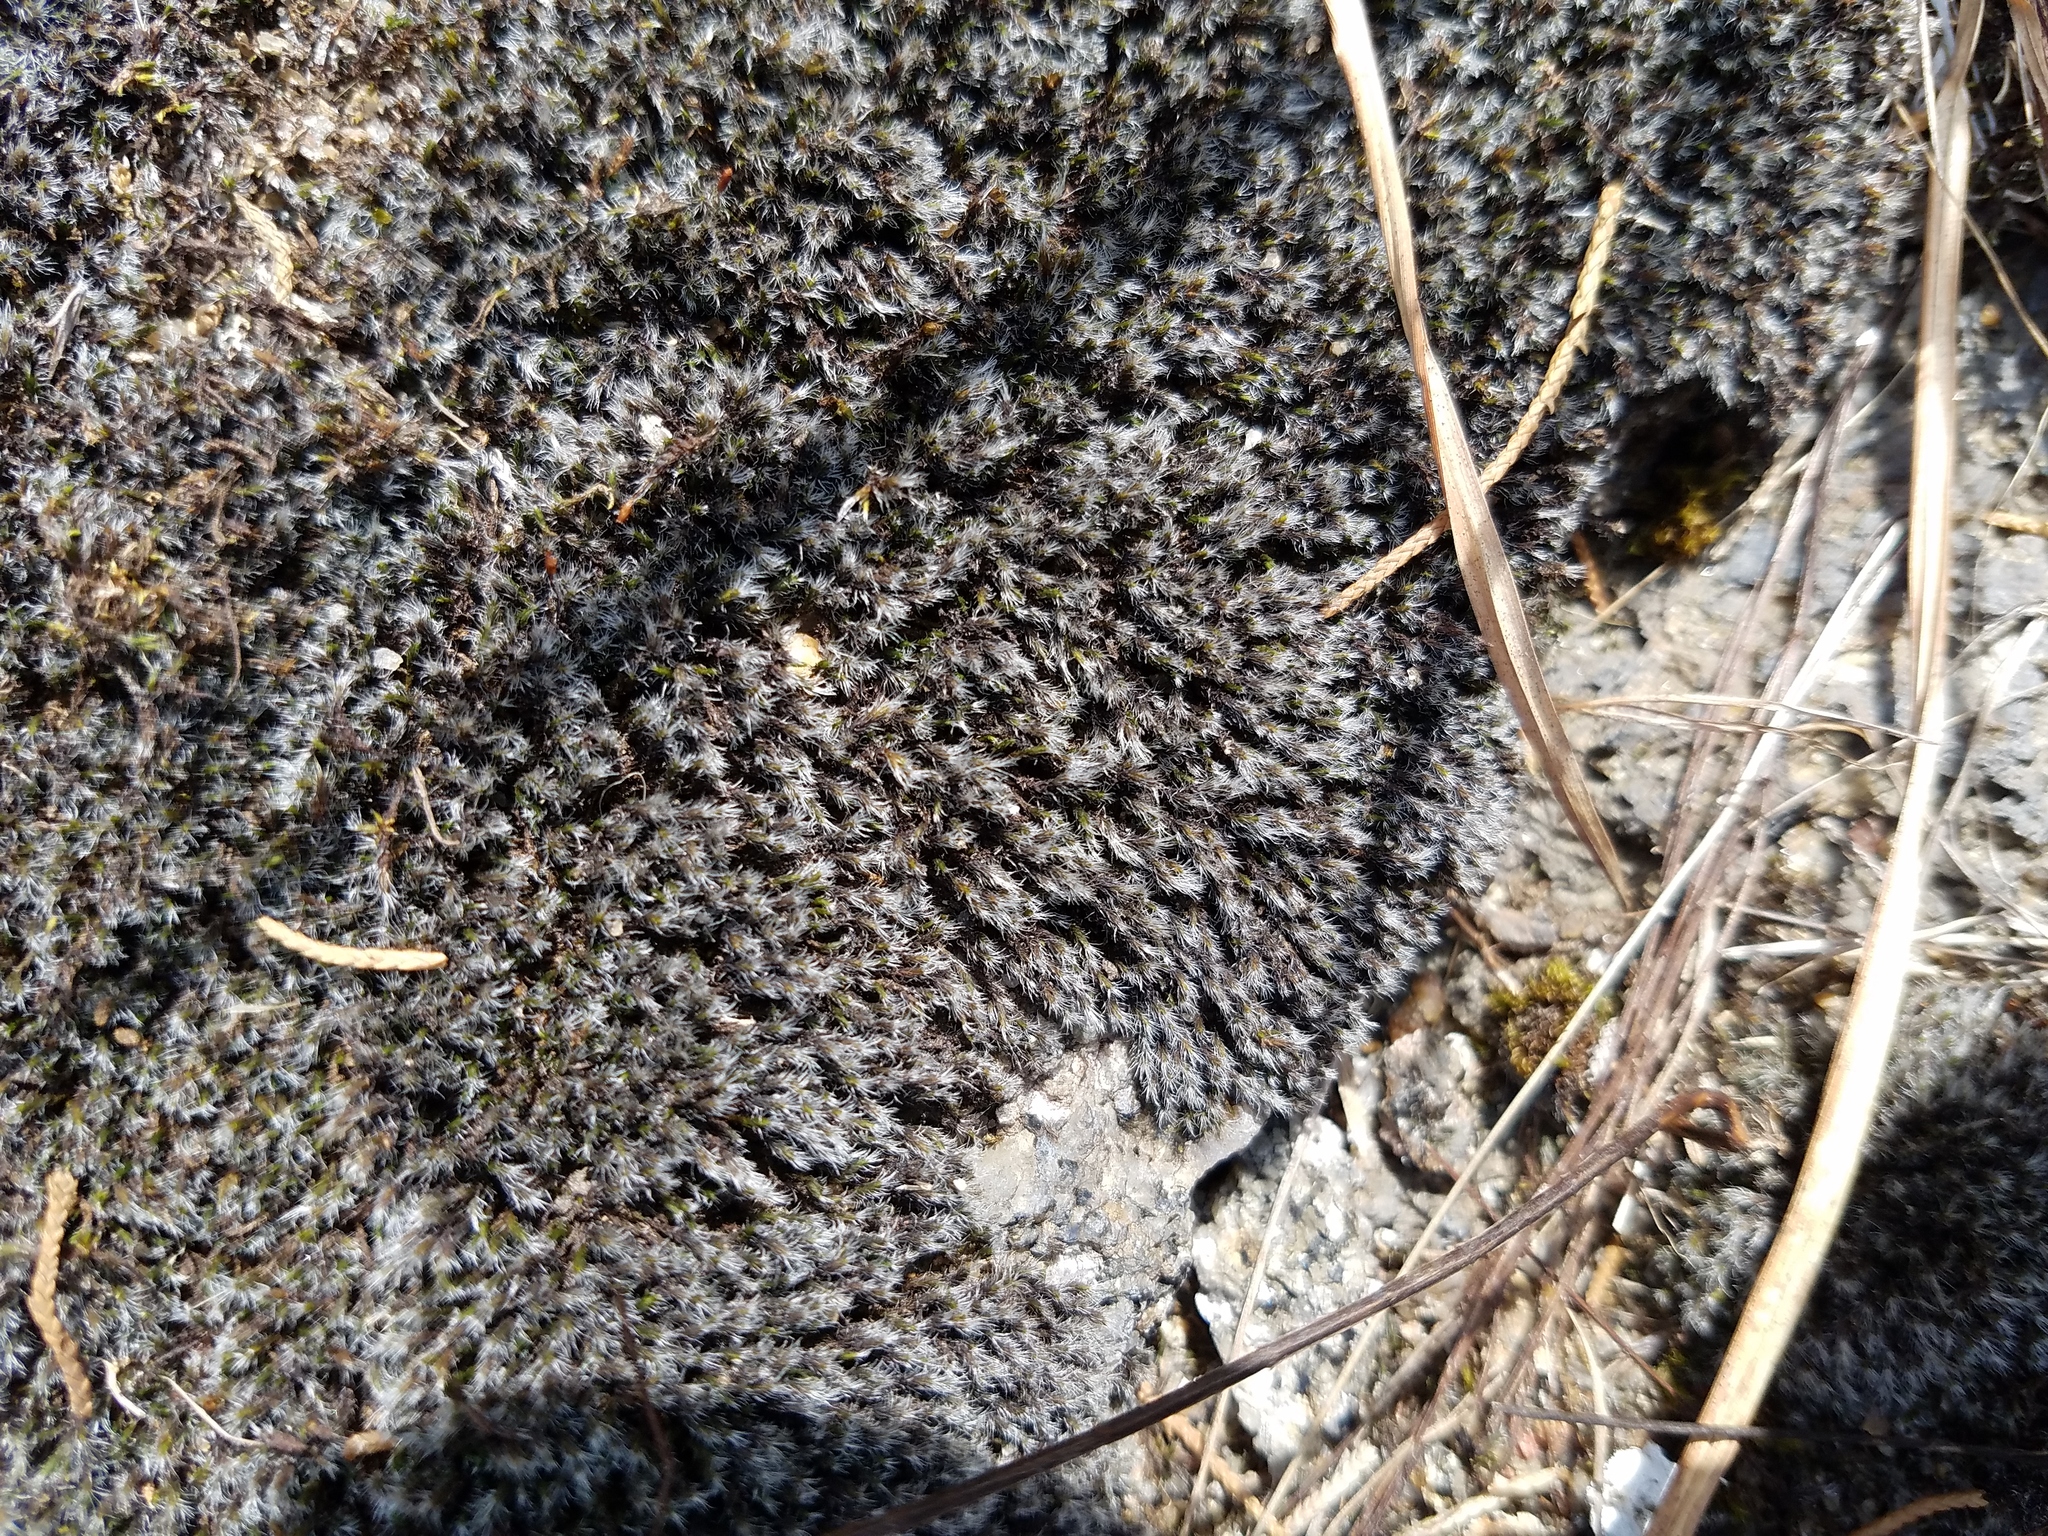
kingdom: Plantae
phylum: Bryophyta
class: Bryopsida
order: Grimmiales
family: Grimmiaceae
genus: Grimmia
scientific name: Grimmia laevigata
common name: Hoary grimmia
